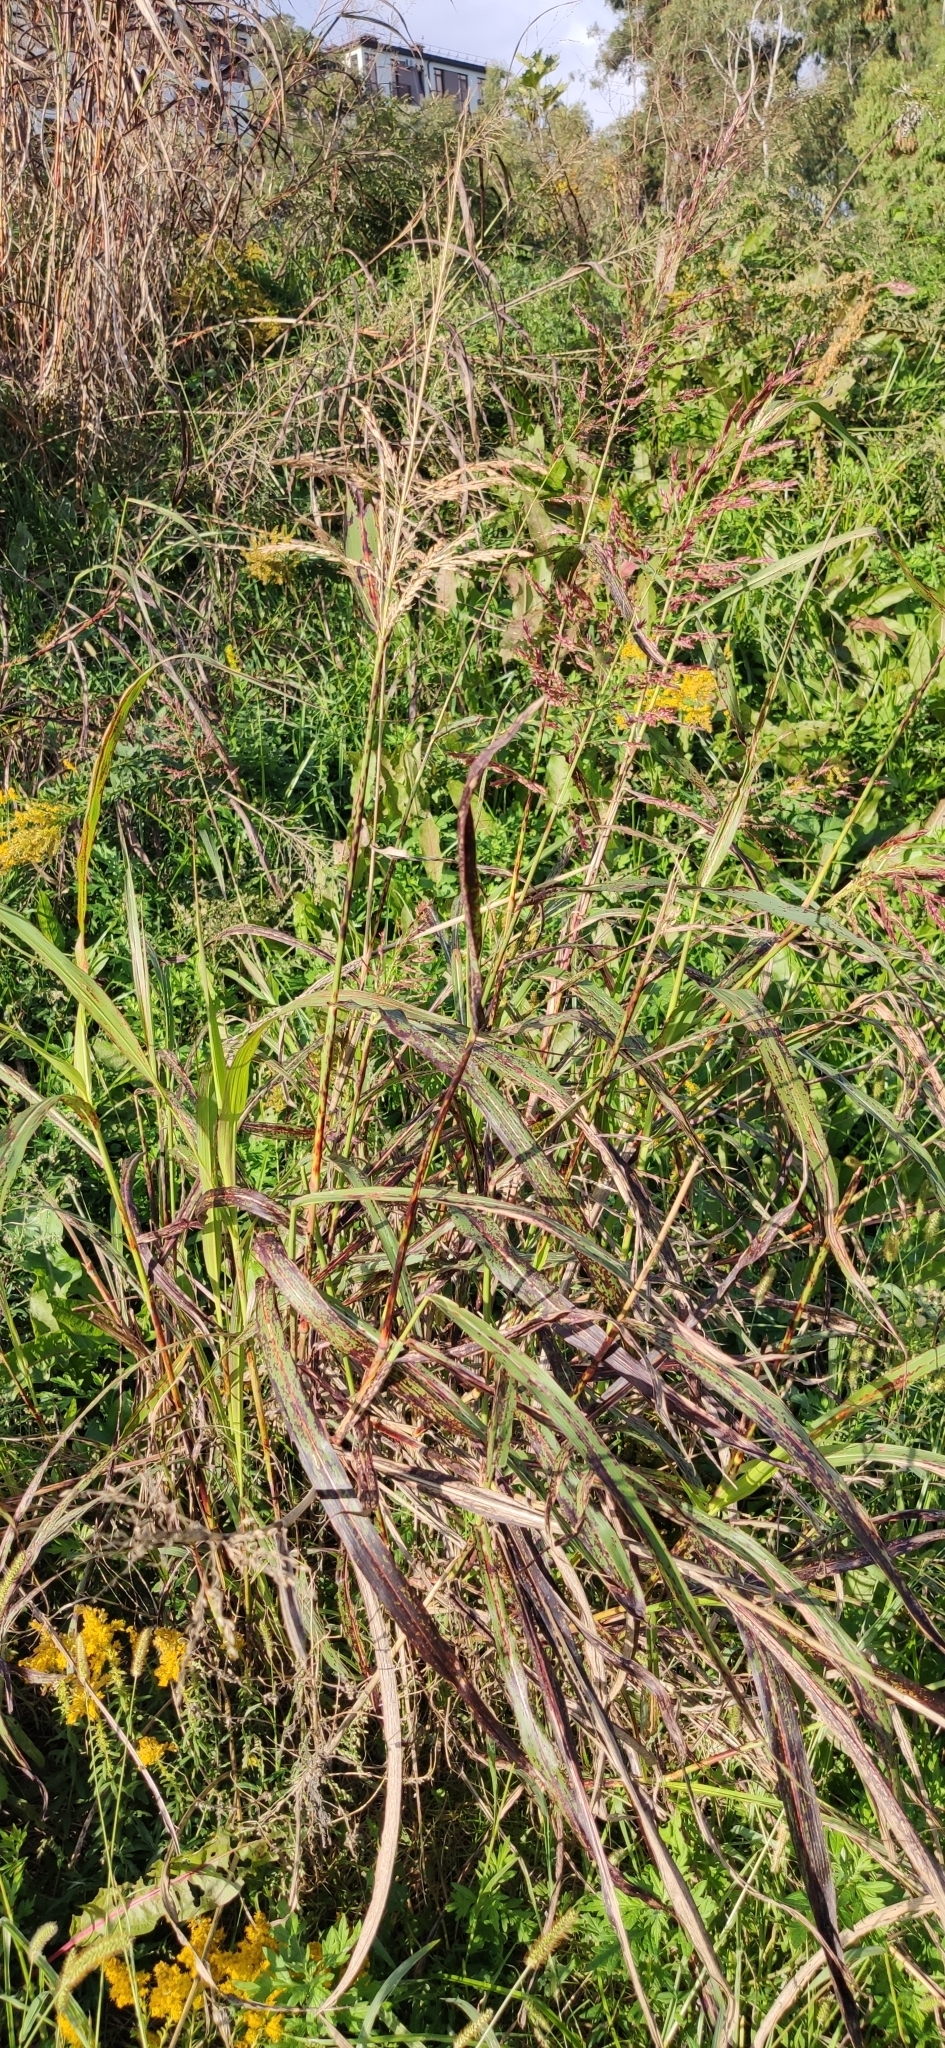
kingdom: Plantae
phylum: Tracheophyta
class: Liliopsida
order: Poales
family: Poaceae
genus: Sorghum
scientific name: Sorghum halepense
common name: Johnson-grass
